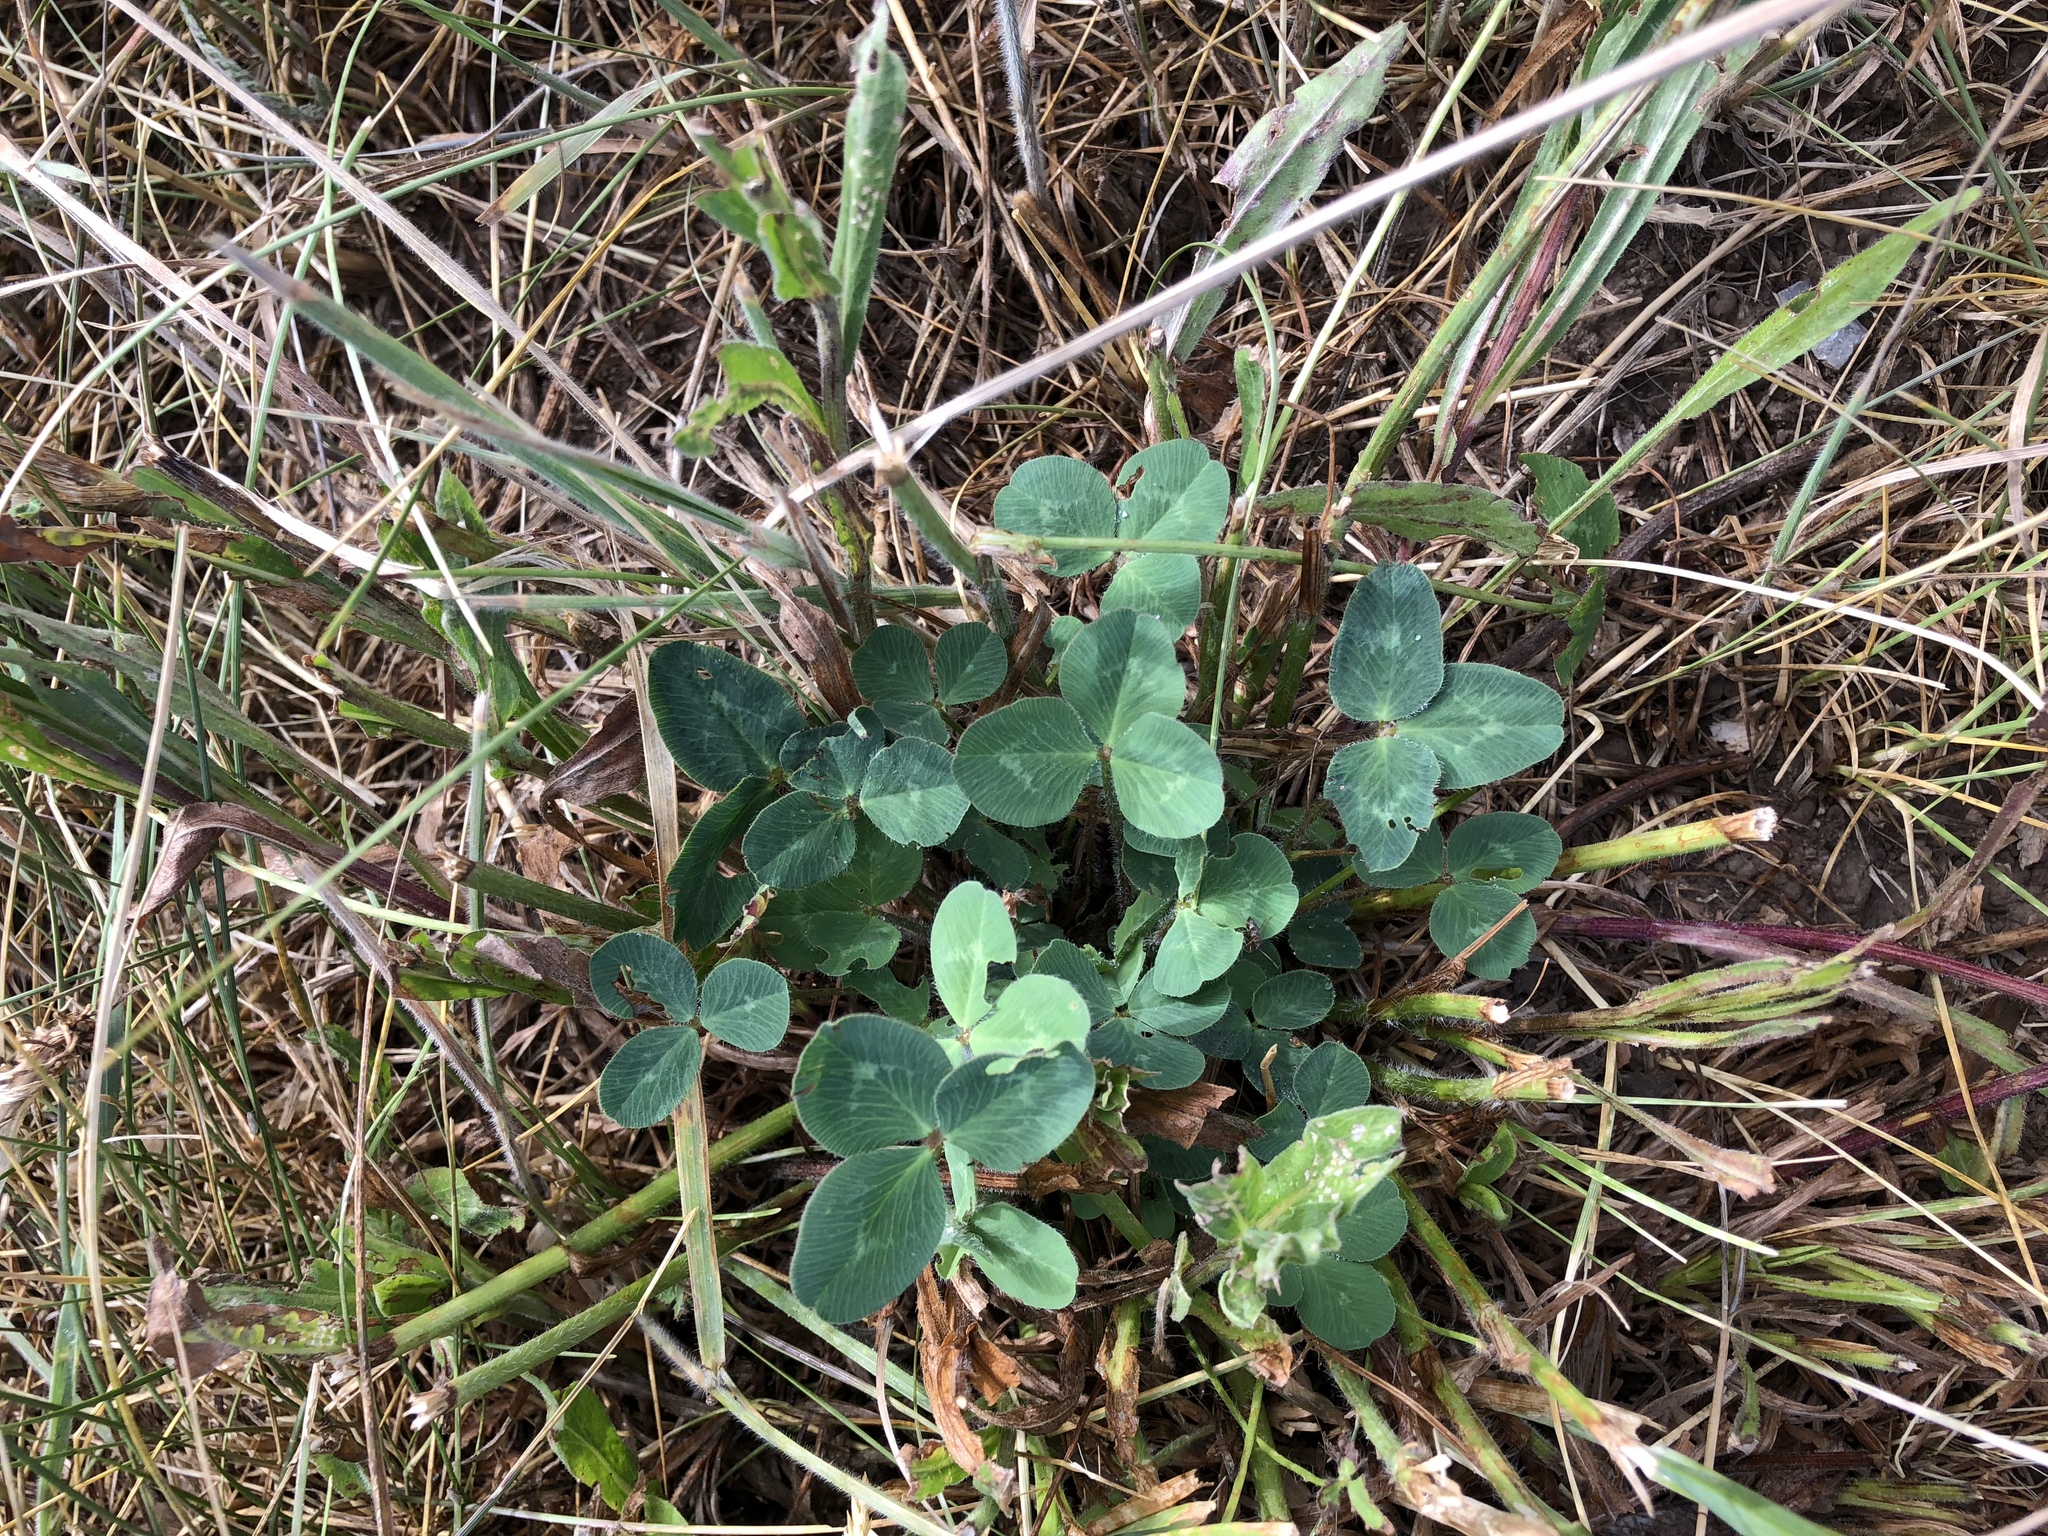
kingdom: Plantae
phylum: Tracheophyta
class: Magnoliopsida
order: Fabales
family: Fabaceae
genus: Trifolium
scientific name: Trifolium pratense
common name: Red clover
